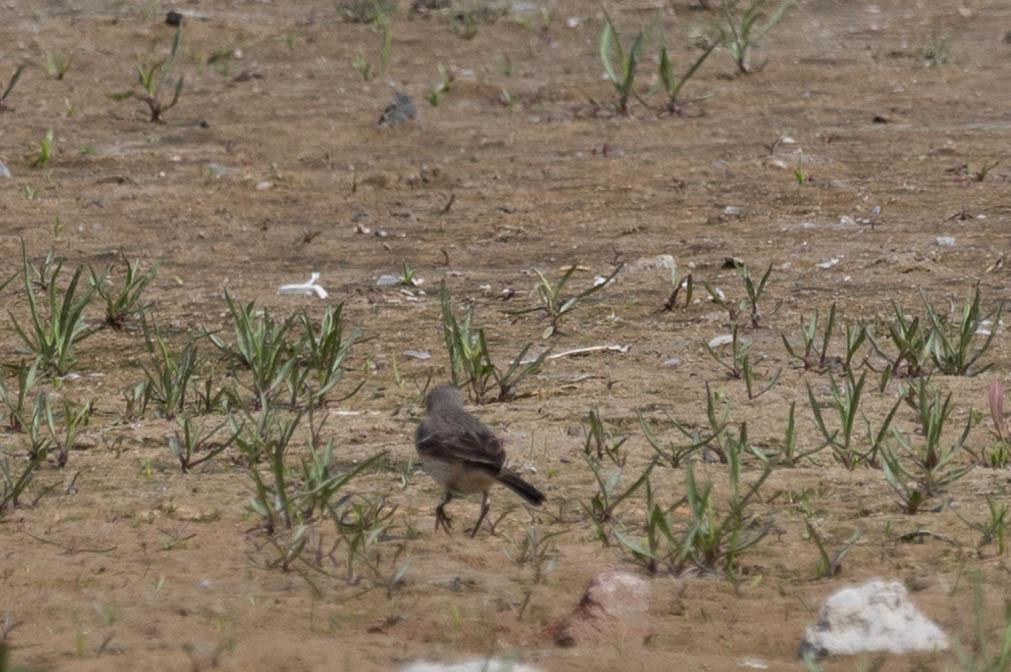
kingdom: Animalia
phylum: Chordata
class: Aves
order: Passeriformes
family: Motacillidae
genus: Anthus
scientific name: Anthus rubescens
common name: Buff-bellied pipit
